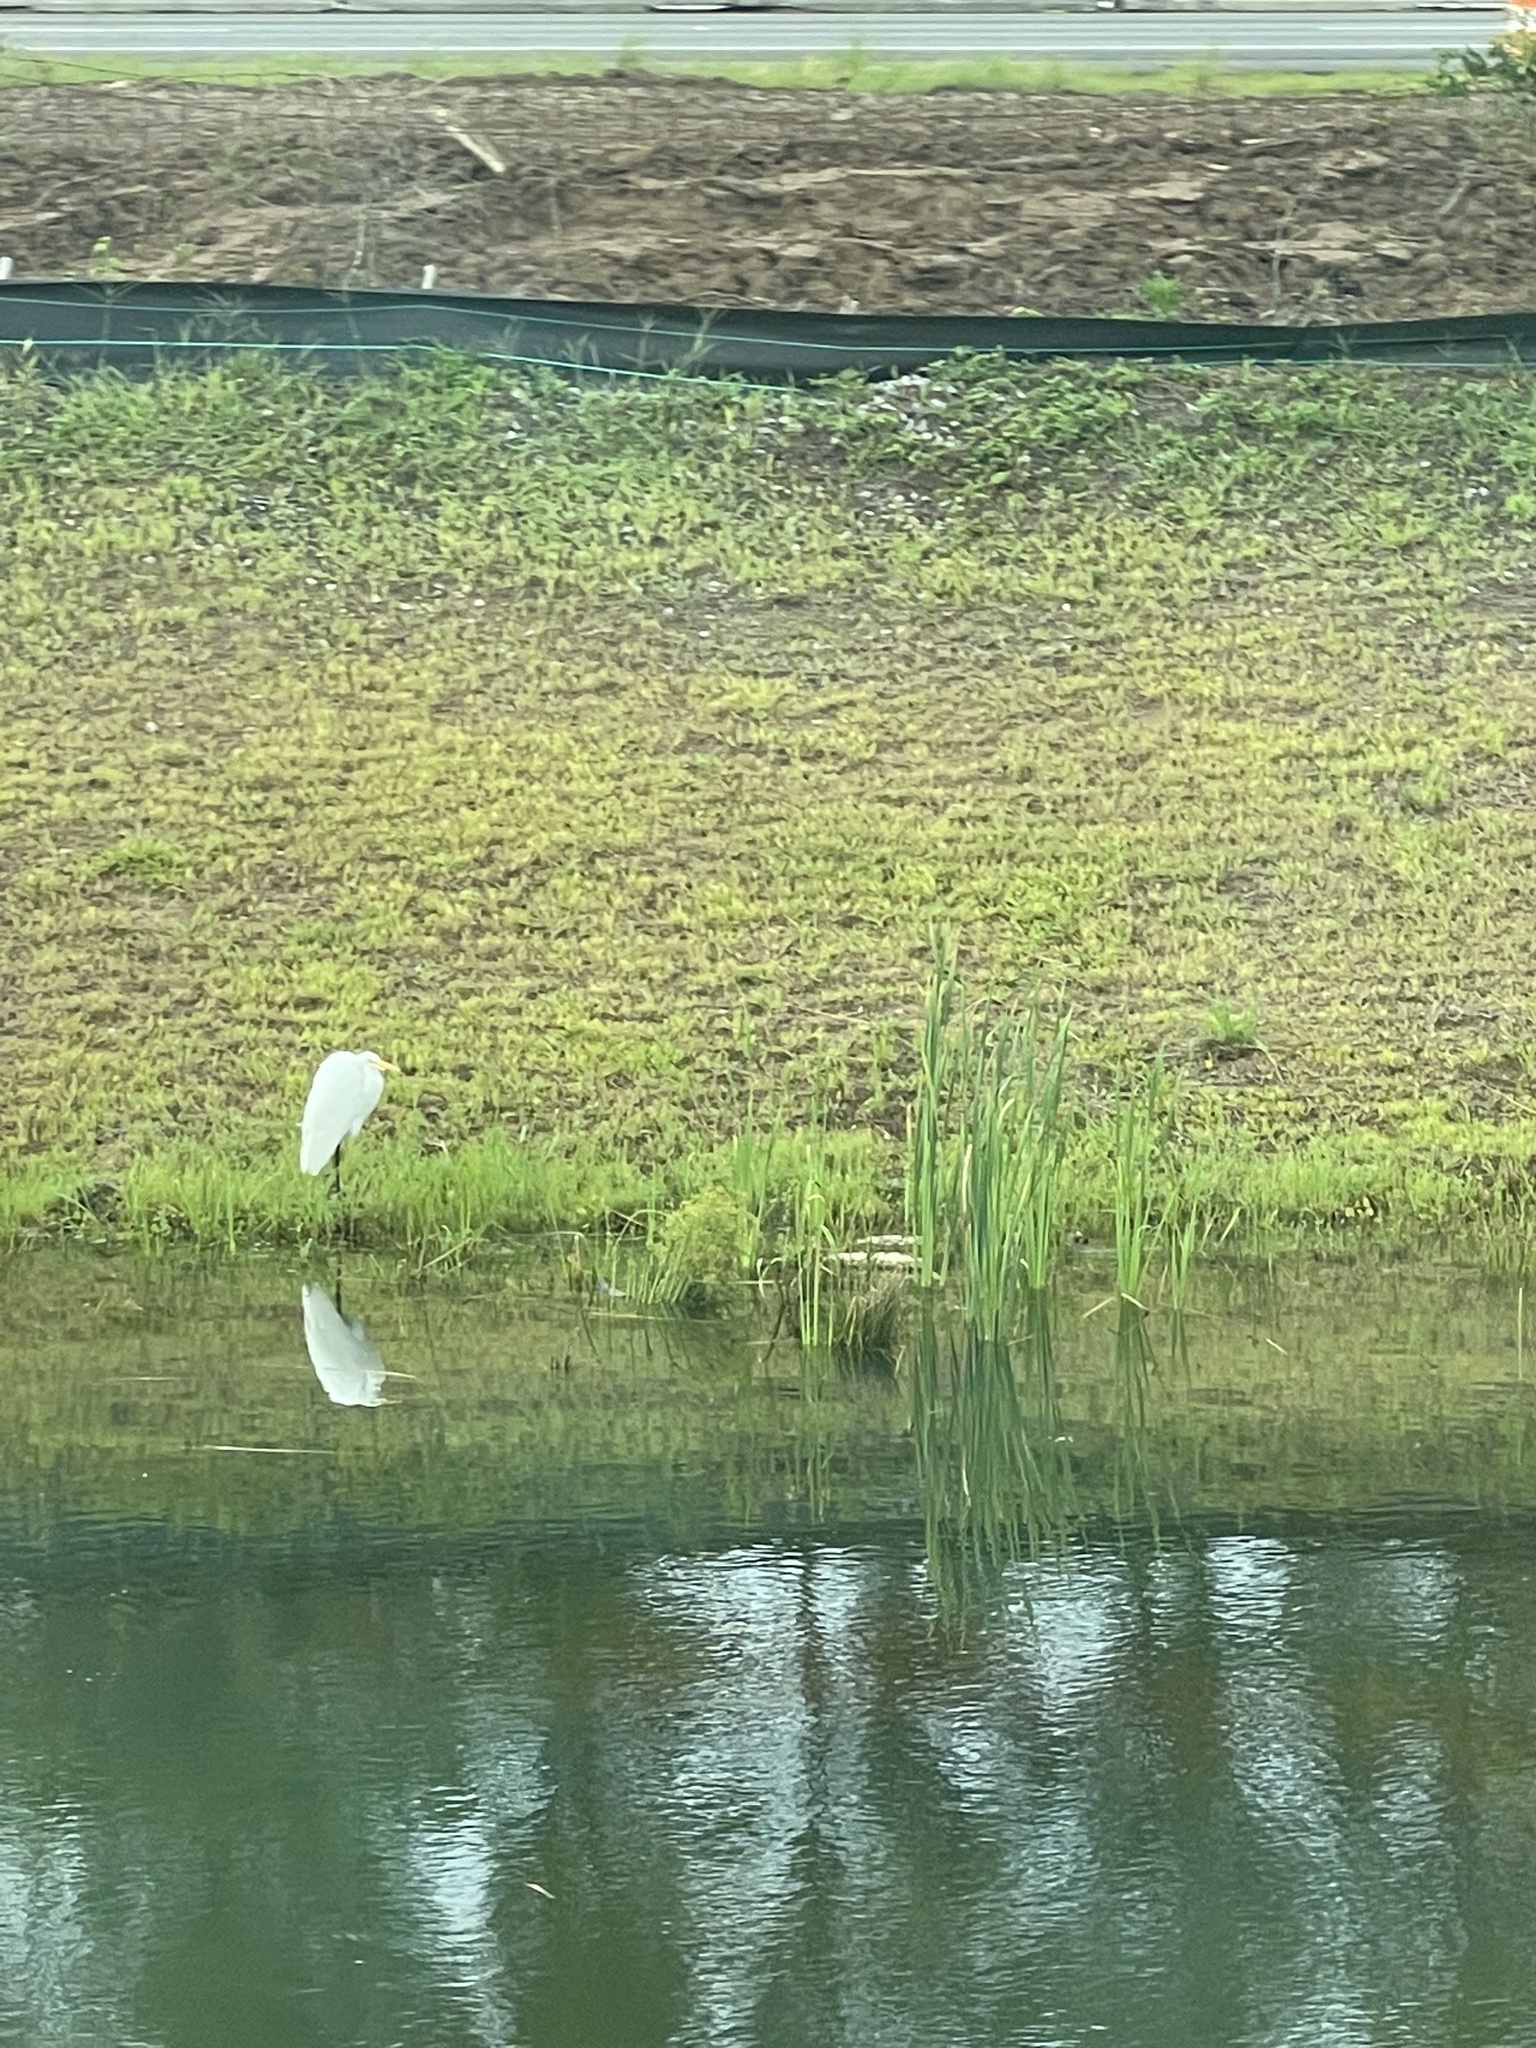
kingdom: Animalia
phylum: Chordata
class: Aves
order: Pelecaniformes
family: Ardeidae
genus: Ardea
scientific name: Ardea alba
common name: Great egret
